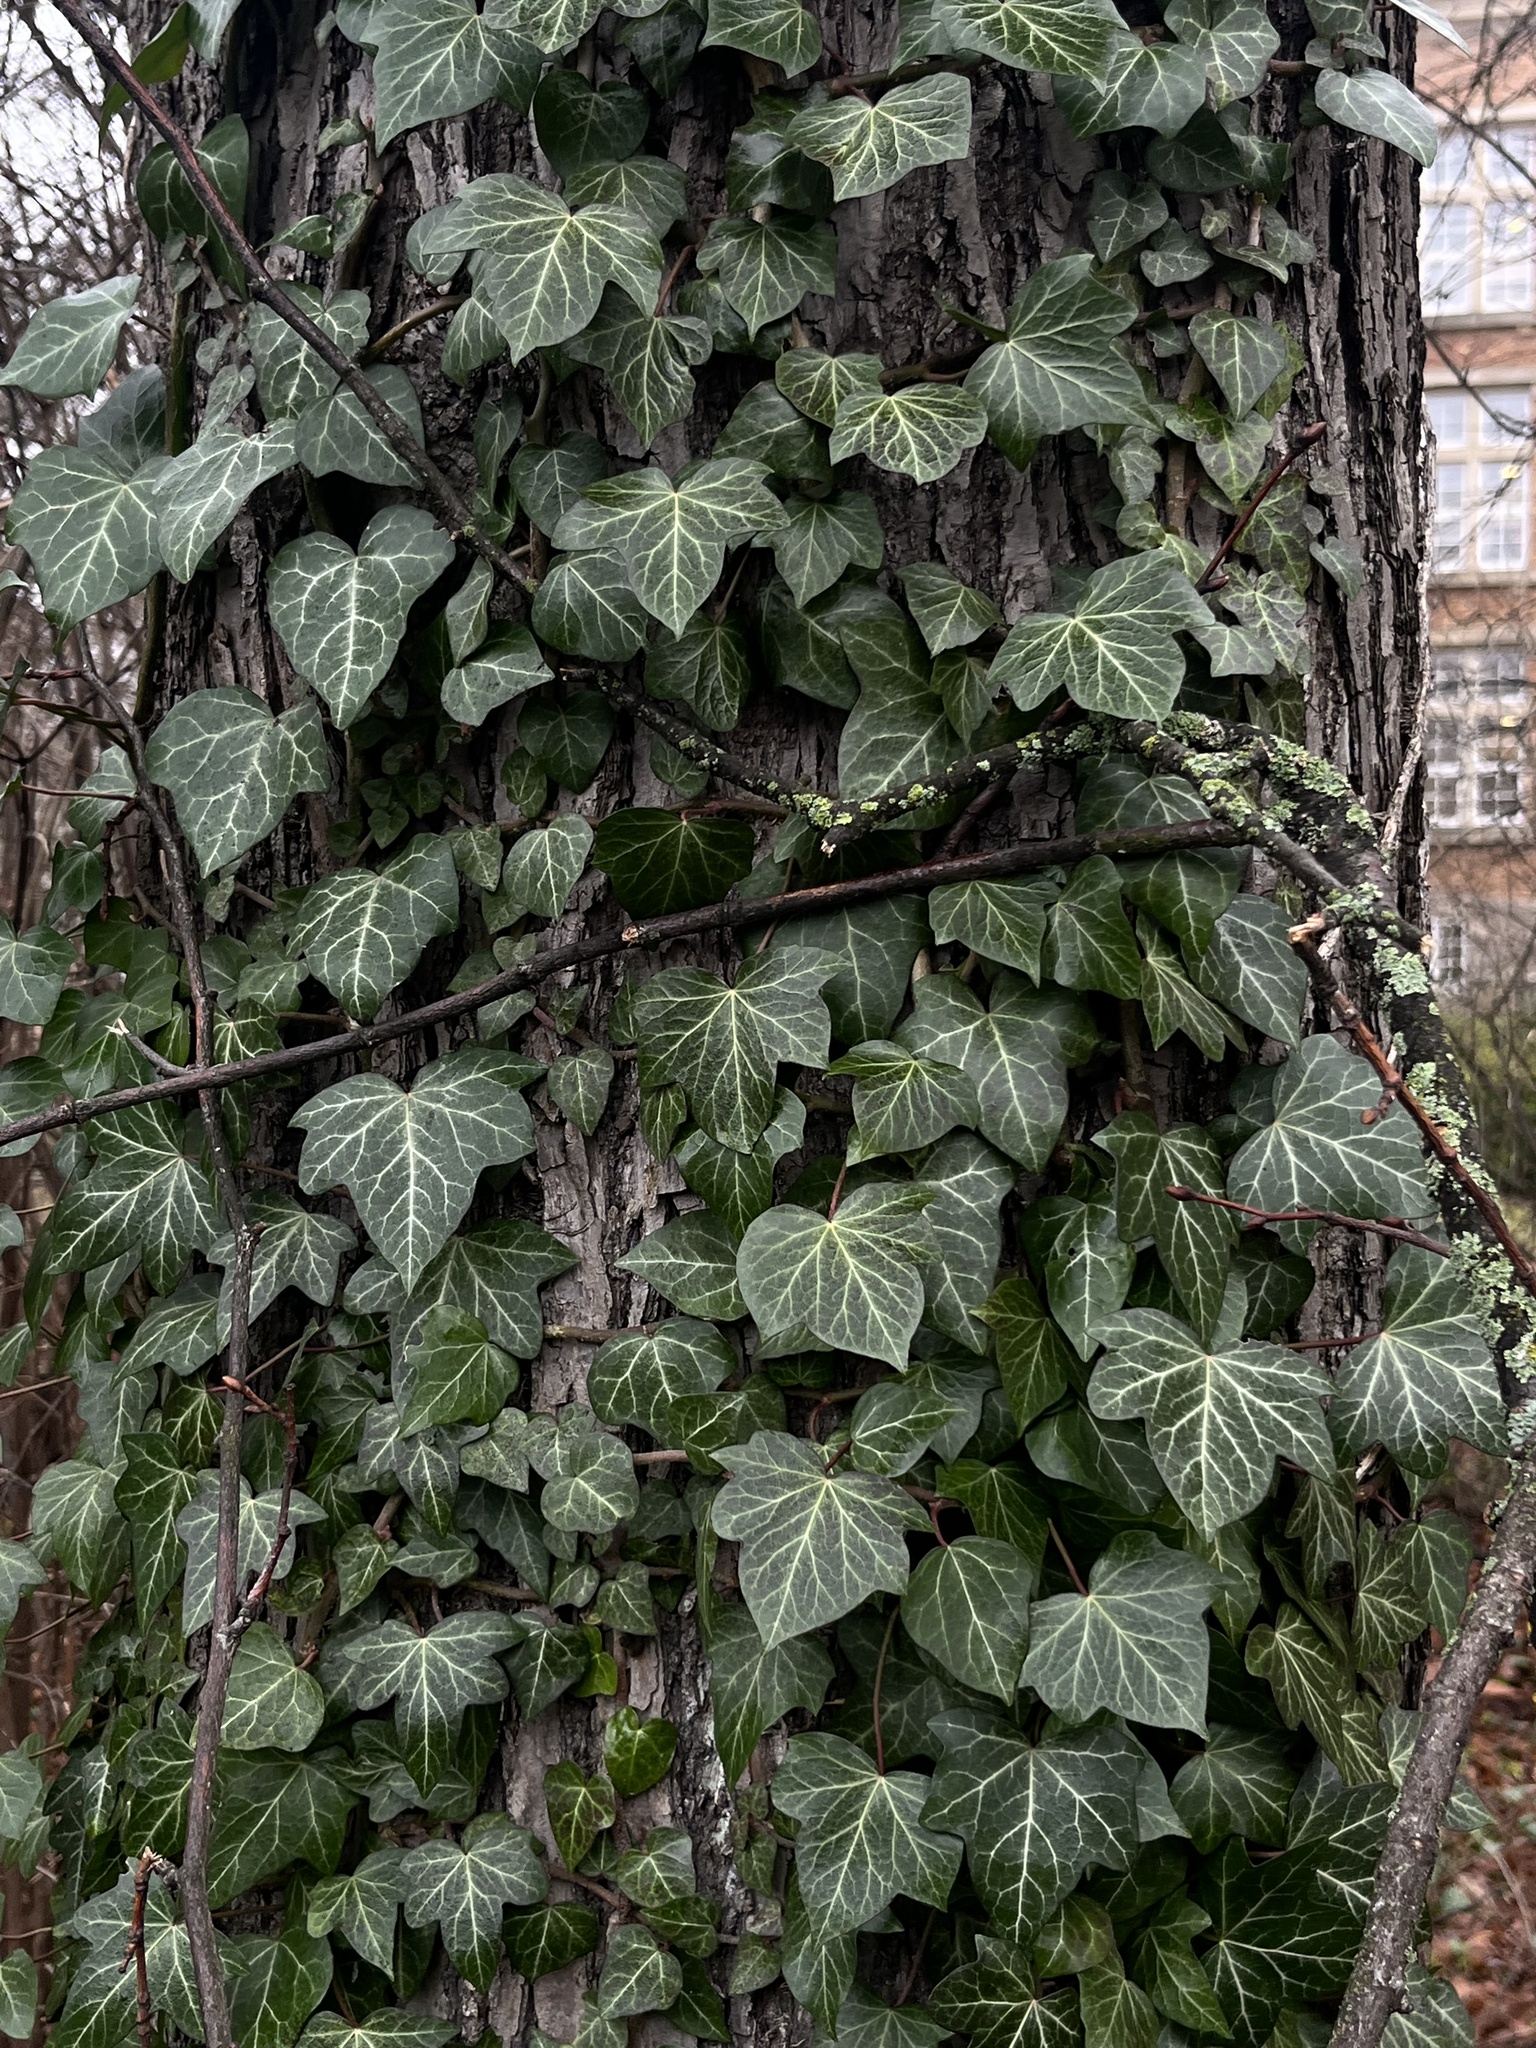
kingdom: Plantae
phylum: Tracheophyta
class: Magnoliopsida
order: Apiales
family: Araliaceae
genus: Hedera
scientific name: Hedera helix
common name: Ivy
